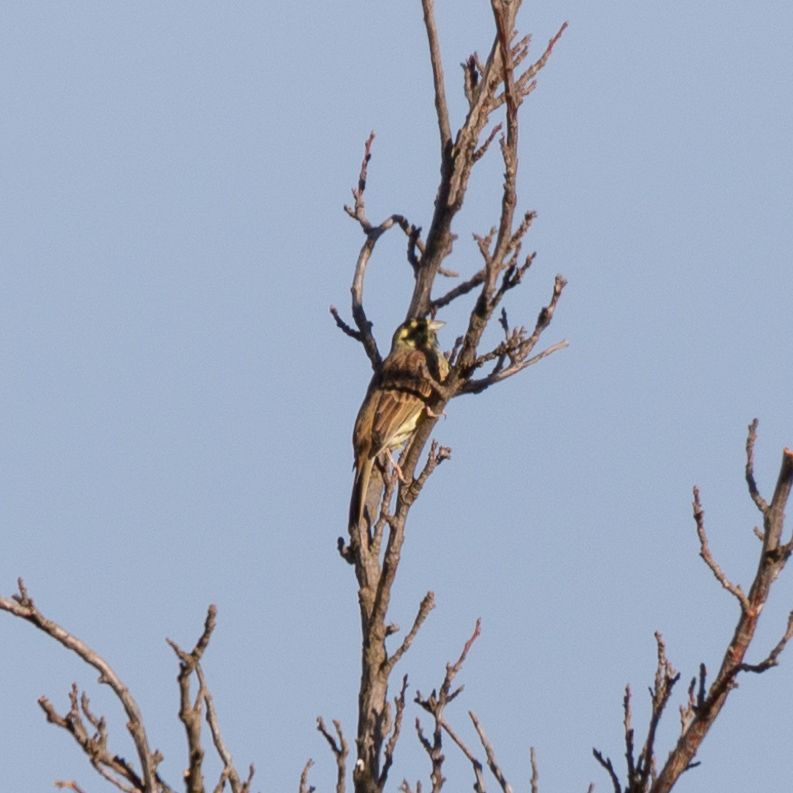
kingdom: Animalia
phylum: Chordata
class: Aves
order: Passeriformes
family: Emberizidae
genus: Emberiza
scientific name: Emberiza cirlus
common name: Cirl bunting
